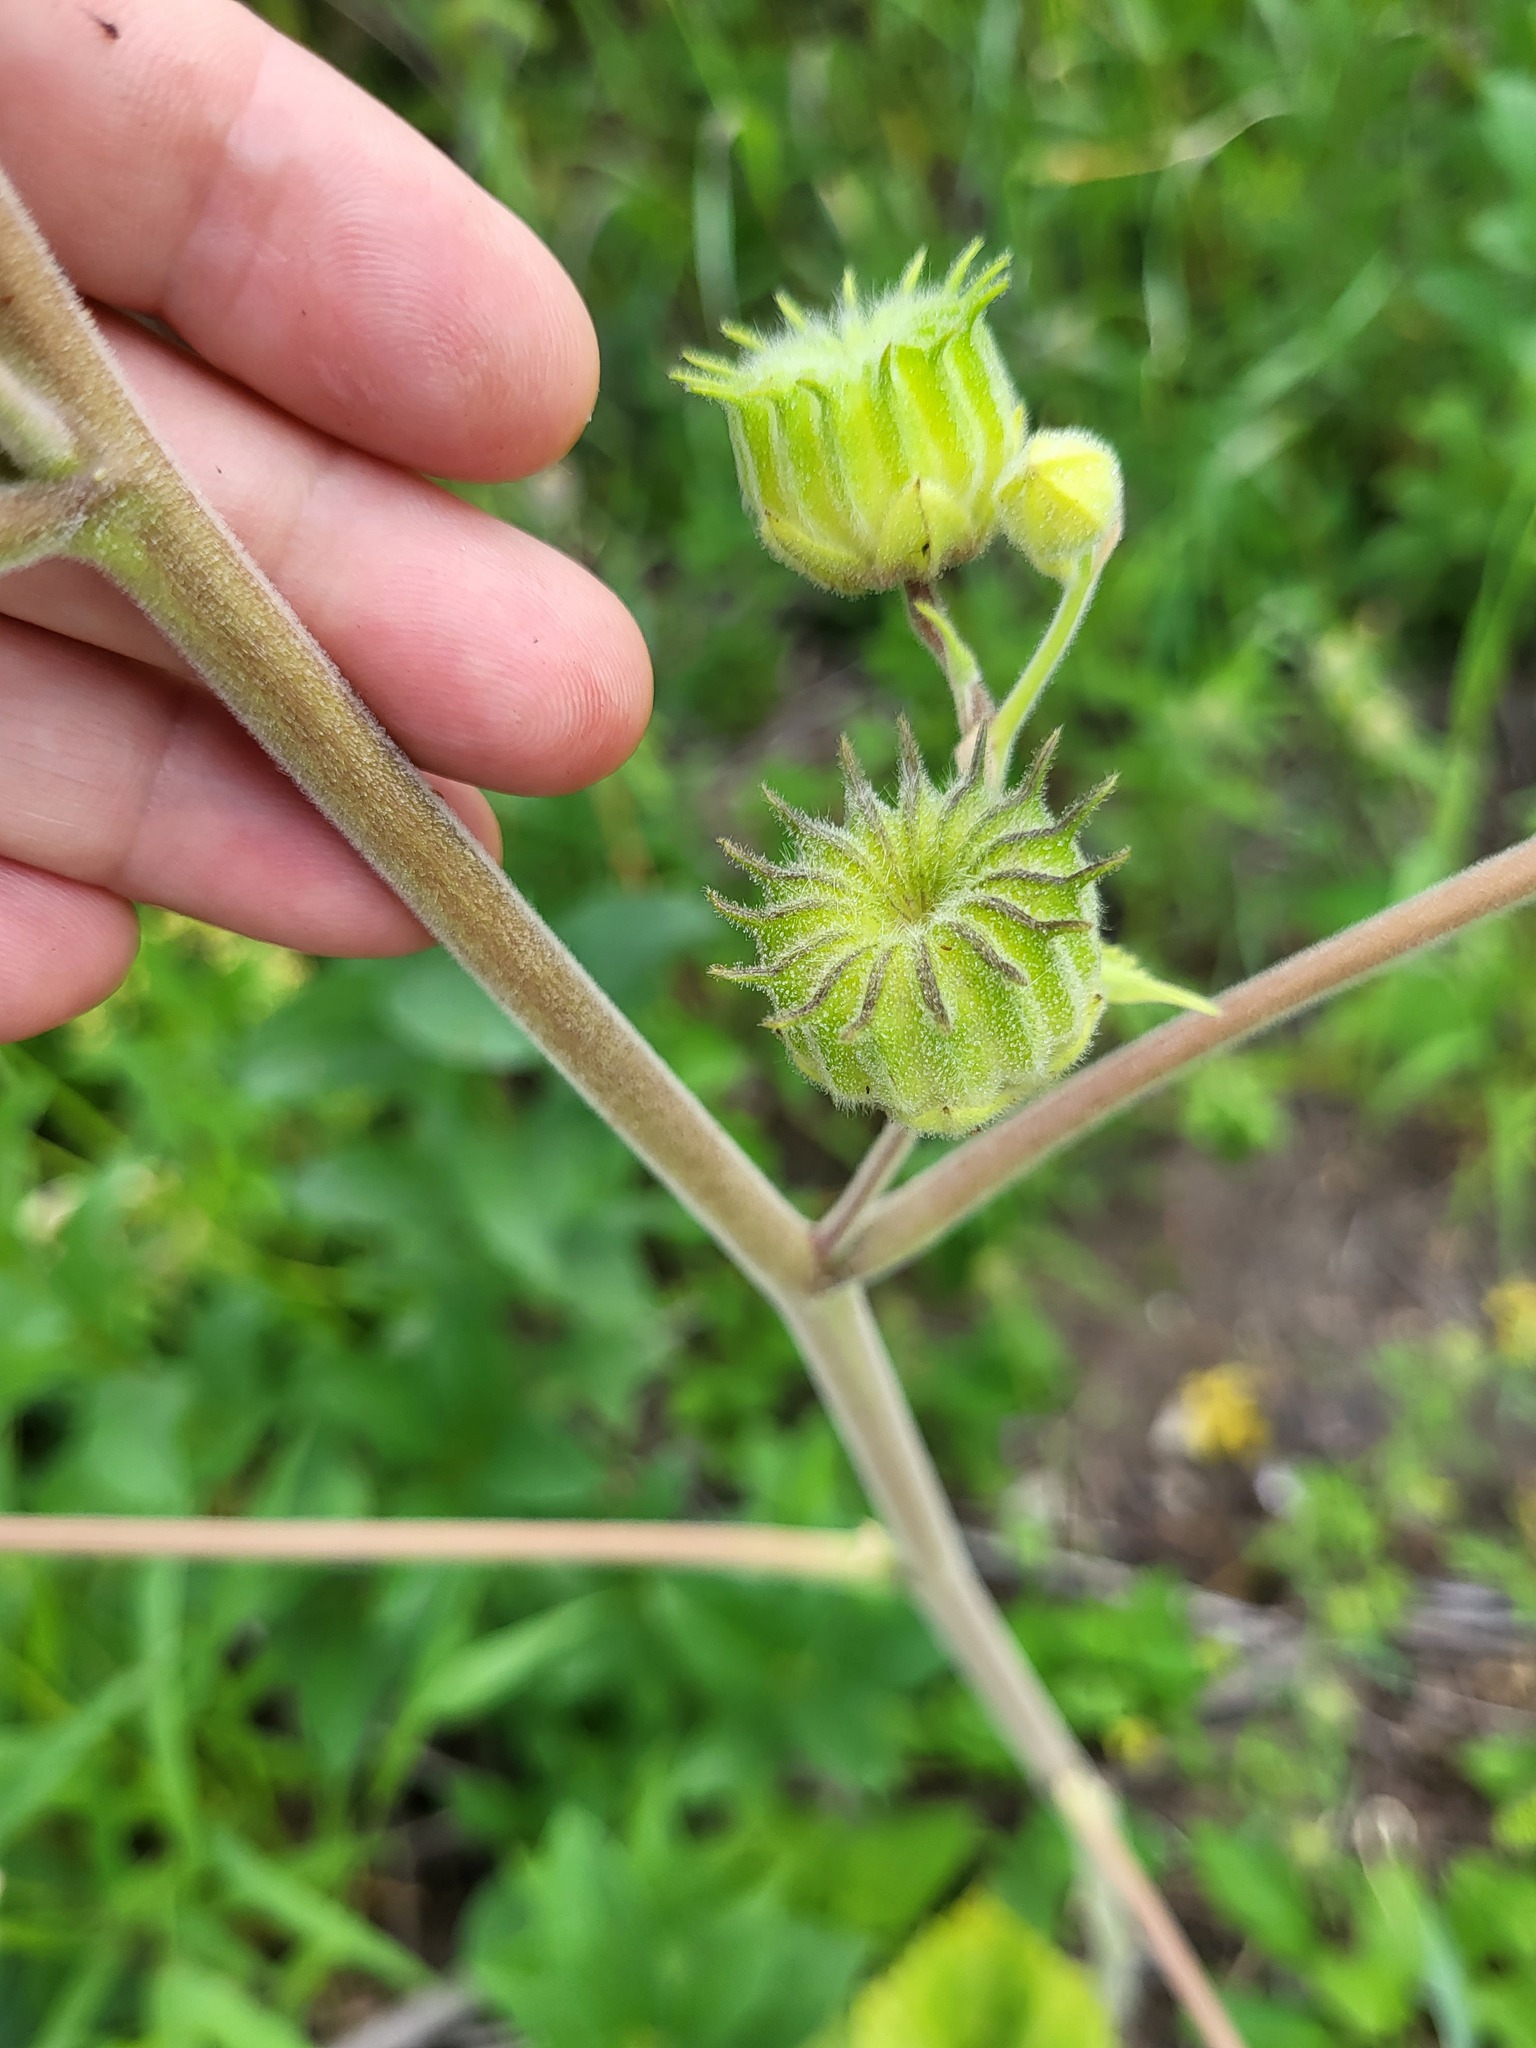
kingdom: Plantae
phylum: Tracheophyta
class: Magnoliopsida
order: Malvales
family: Malvaceae
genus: Abutilon
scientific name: Abutilon theophrasti
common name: Velvetleaf
